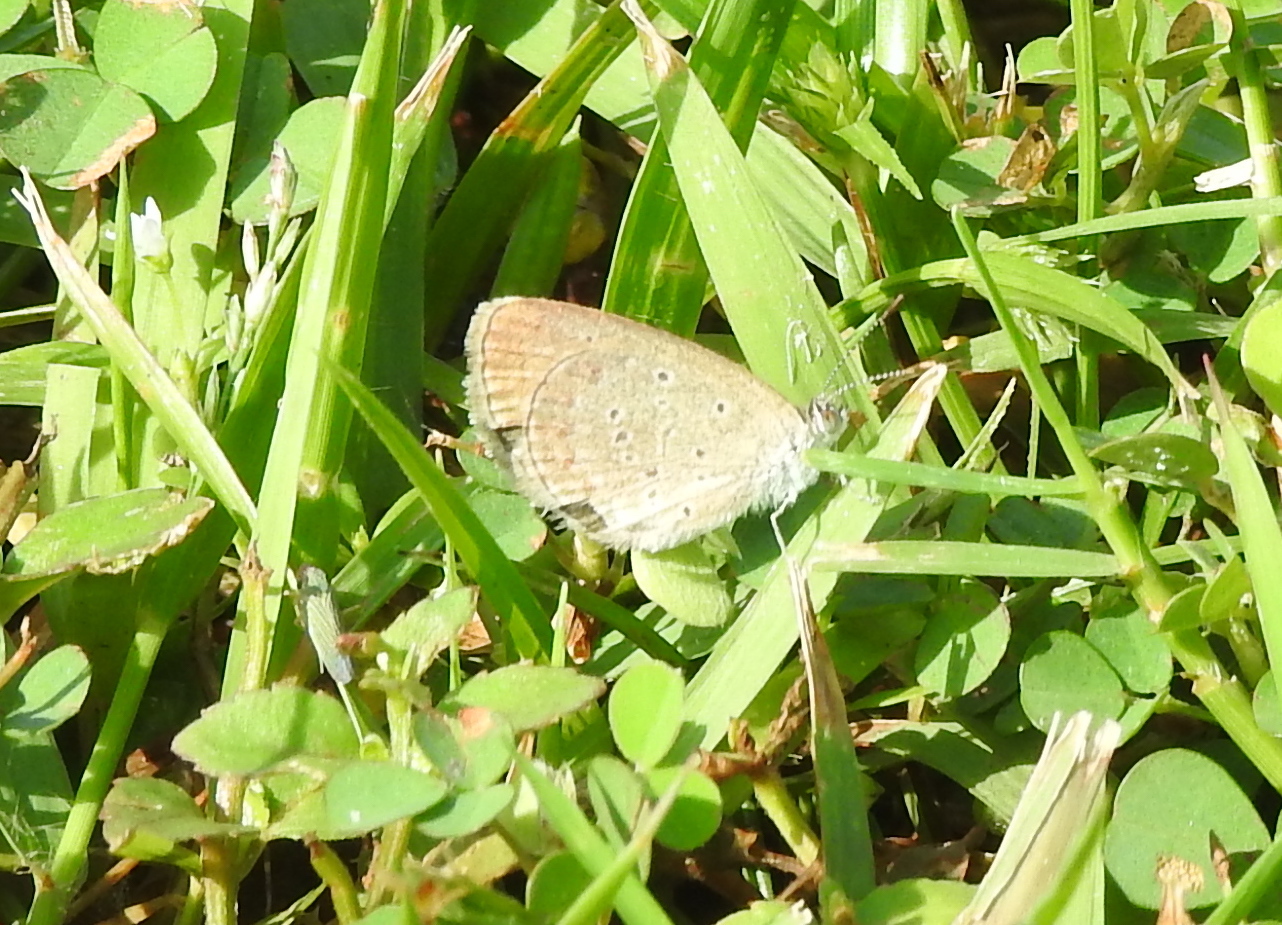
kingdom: Animalia
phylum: Arthropoda
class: Insecta
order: Lepidoptera
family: Lycaenidae
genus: Zizina
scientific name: Zizina otis
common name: Lesser grass blue
